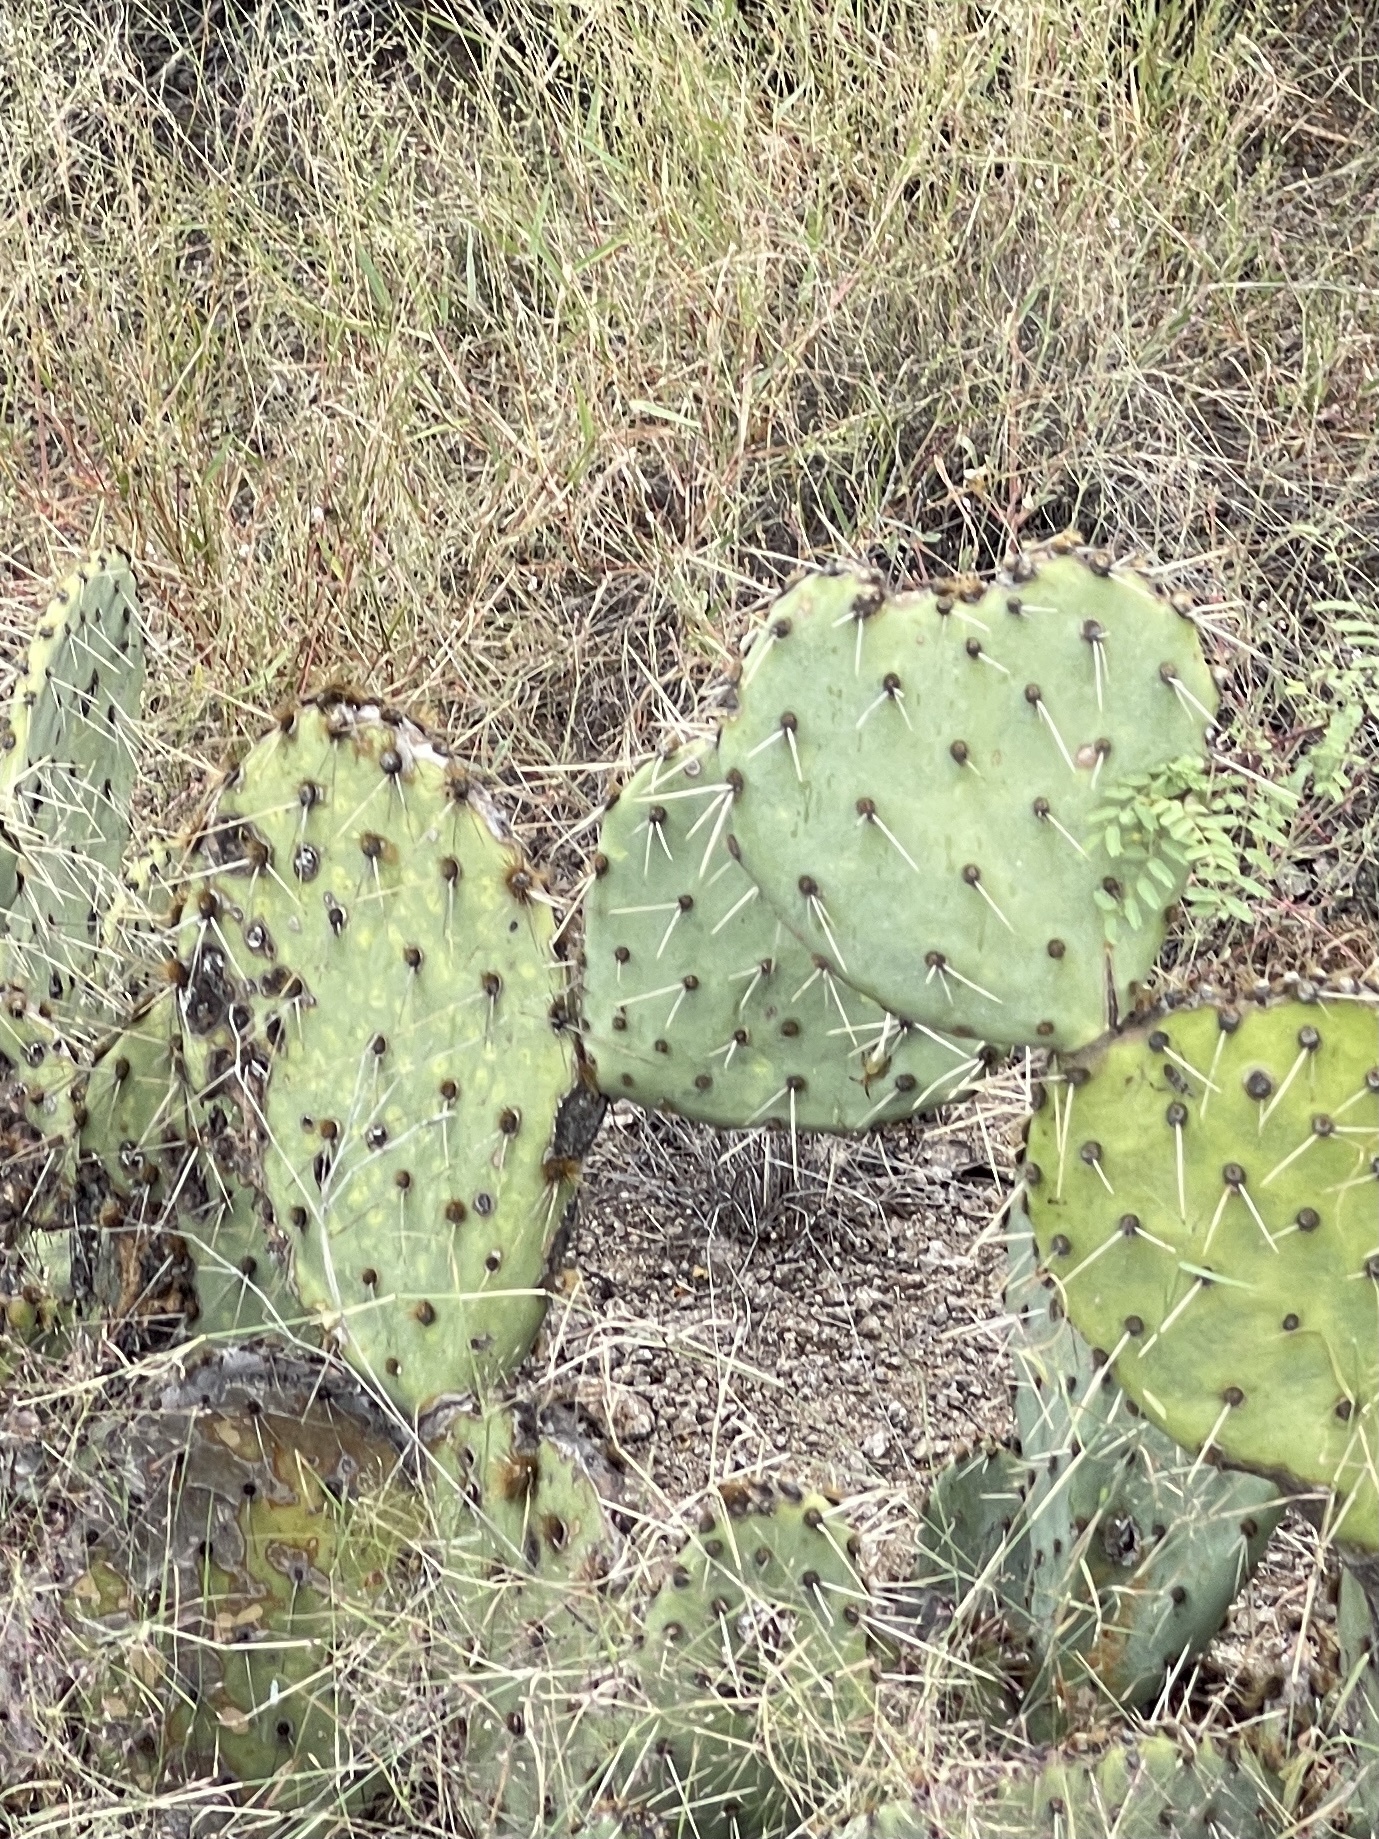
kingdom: Plantae
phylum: Tracheophyta
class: Magnoliopsida
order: Caryophyllales
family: Cactaceae
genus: Opuntia
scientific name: Opuntia engelmannii
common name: Cactus-apple
